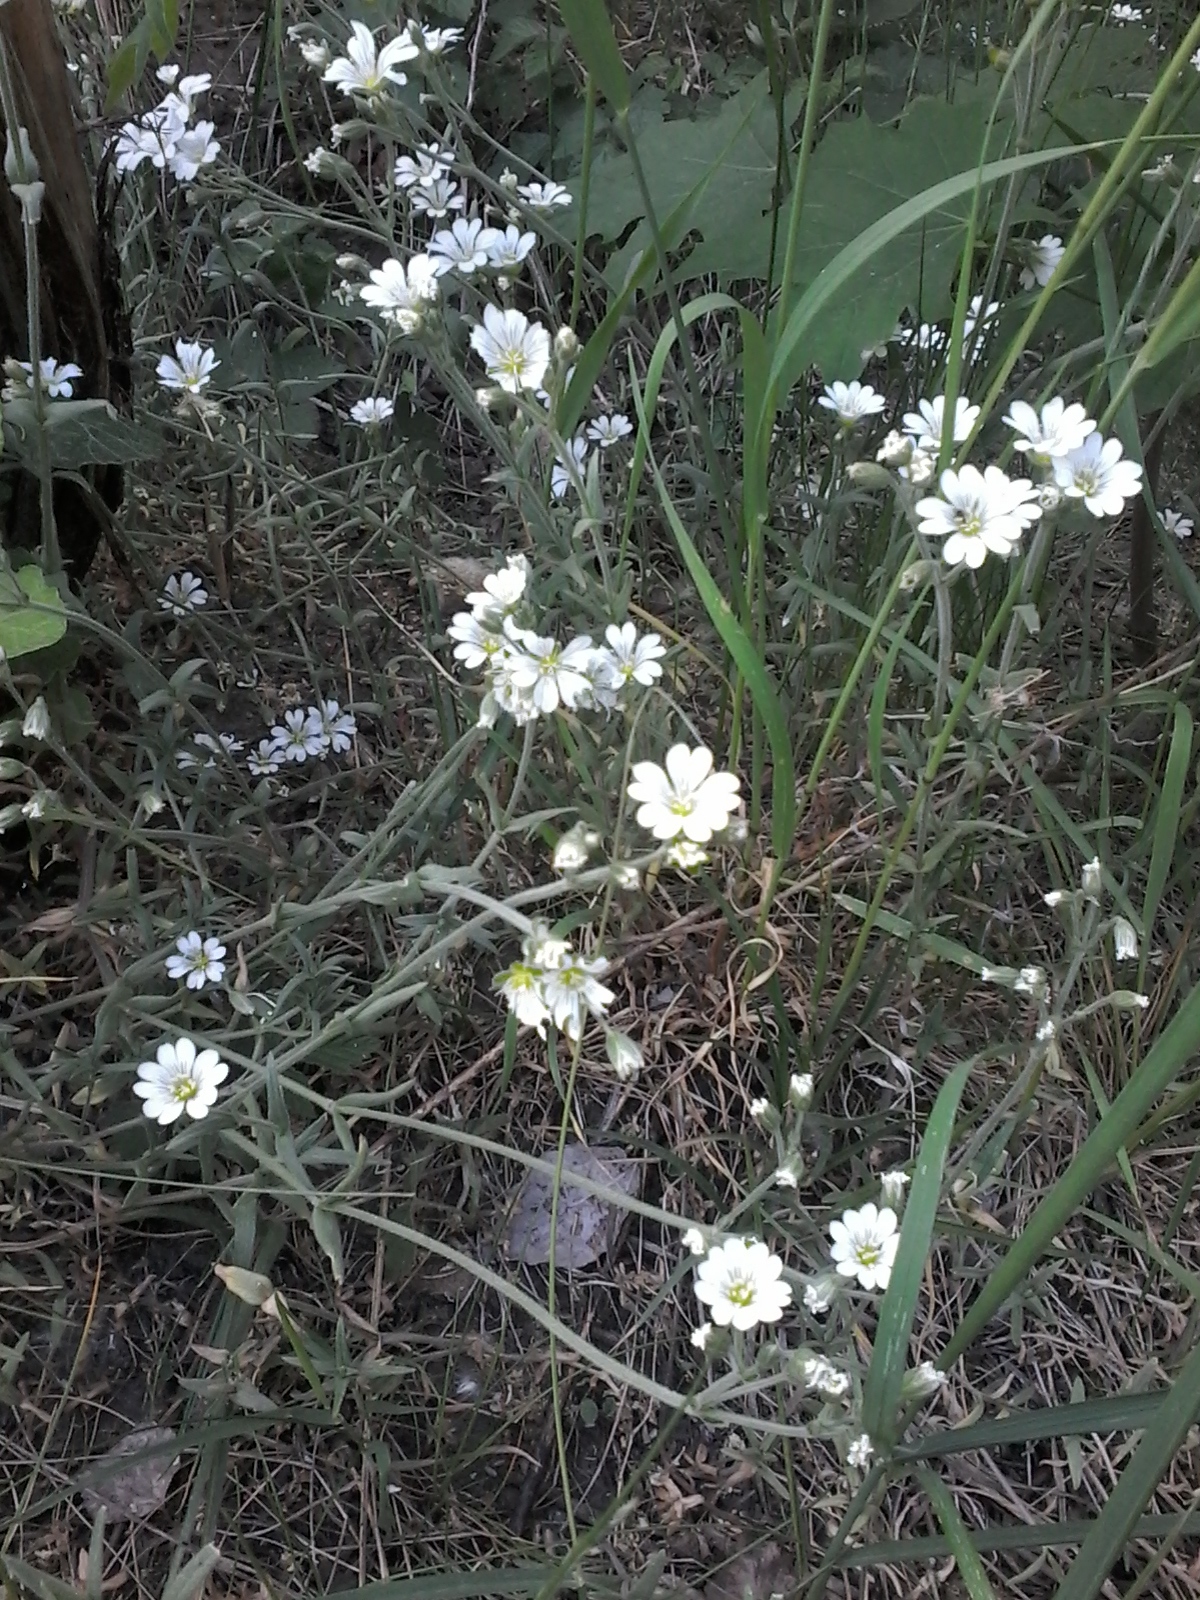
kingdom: Plantae
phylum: Tracheophyta
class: Magnoliopsida
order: Caryophyllales
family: Caryophyllaceae
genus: Cerastium
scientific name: Cerastium tomentosum
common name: Snow-in-summer
